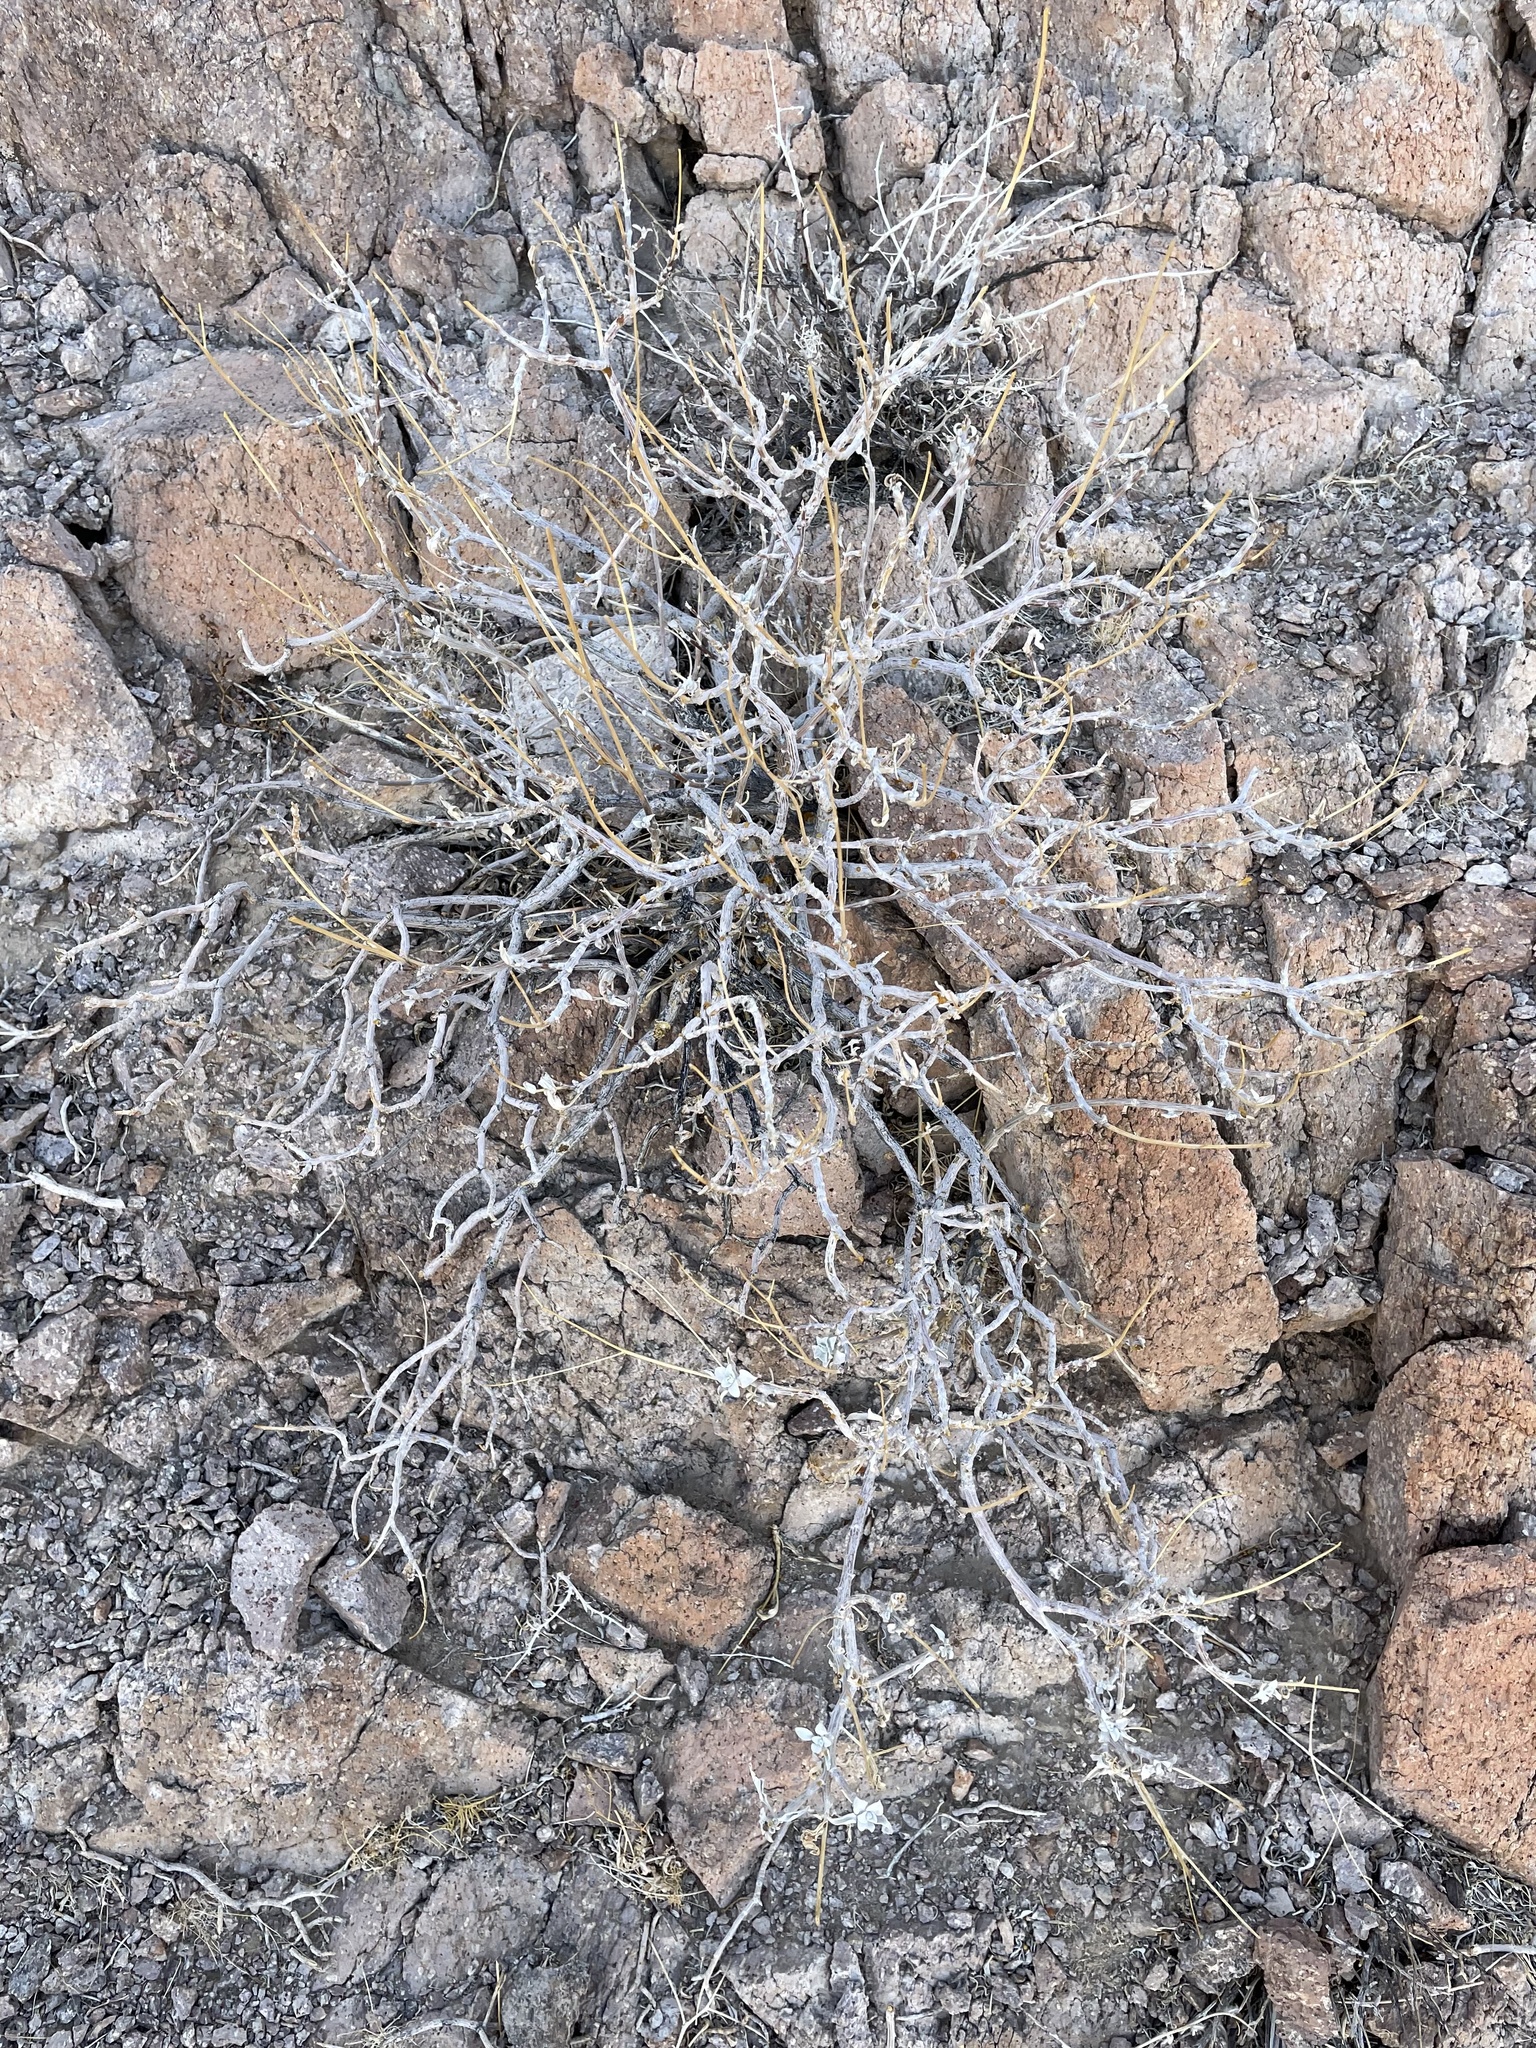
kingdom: Plantae
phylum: Tracheophyta
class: Magnoliopsida
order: Asterales
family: Asteraceae
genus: Encelia
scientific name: Encelia farinosa
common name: Brittlebush
